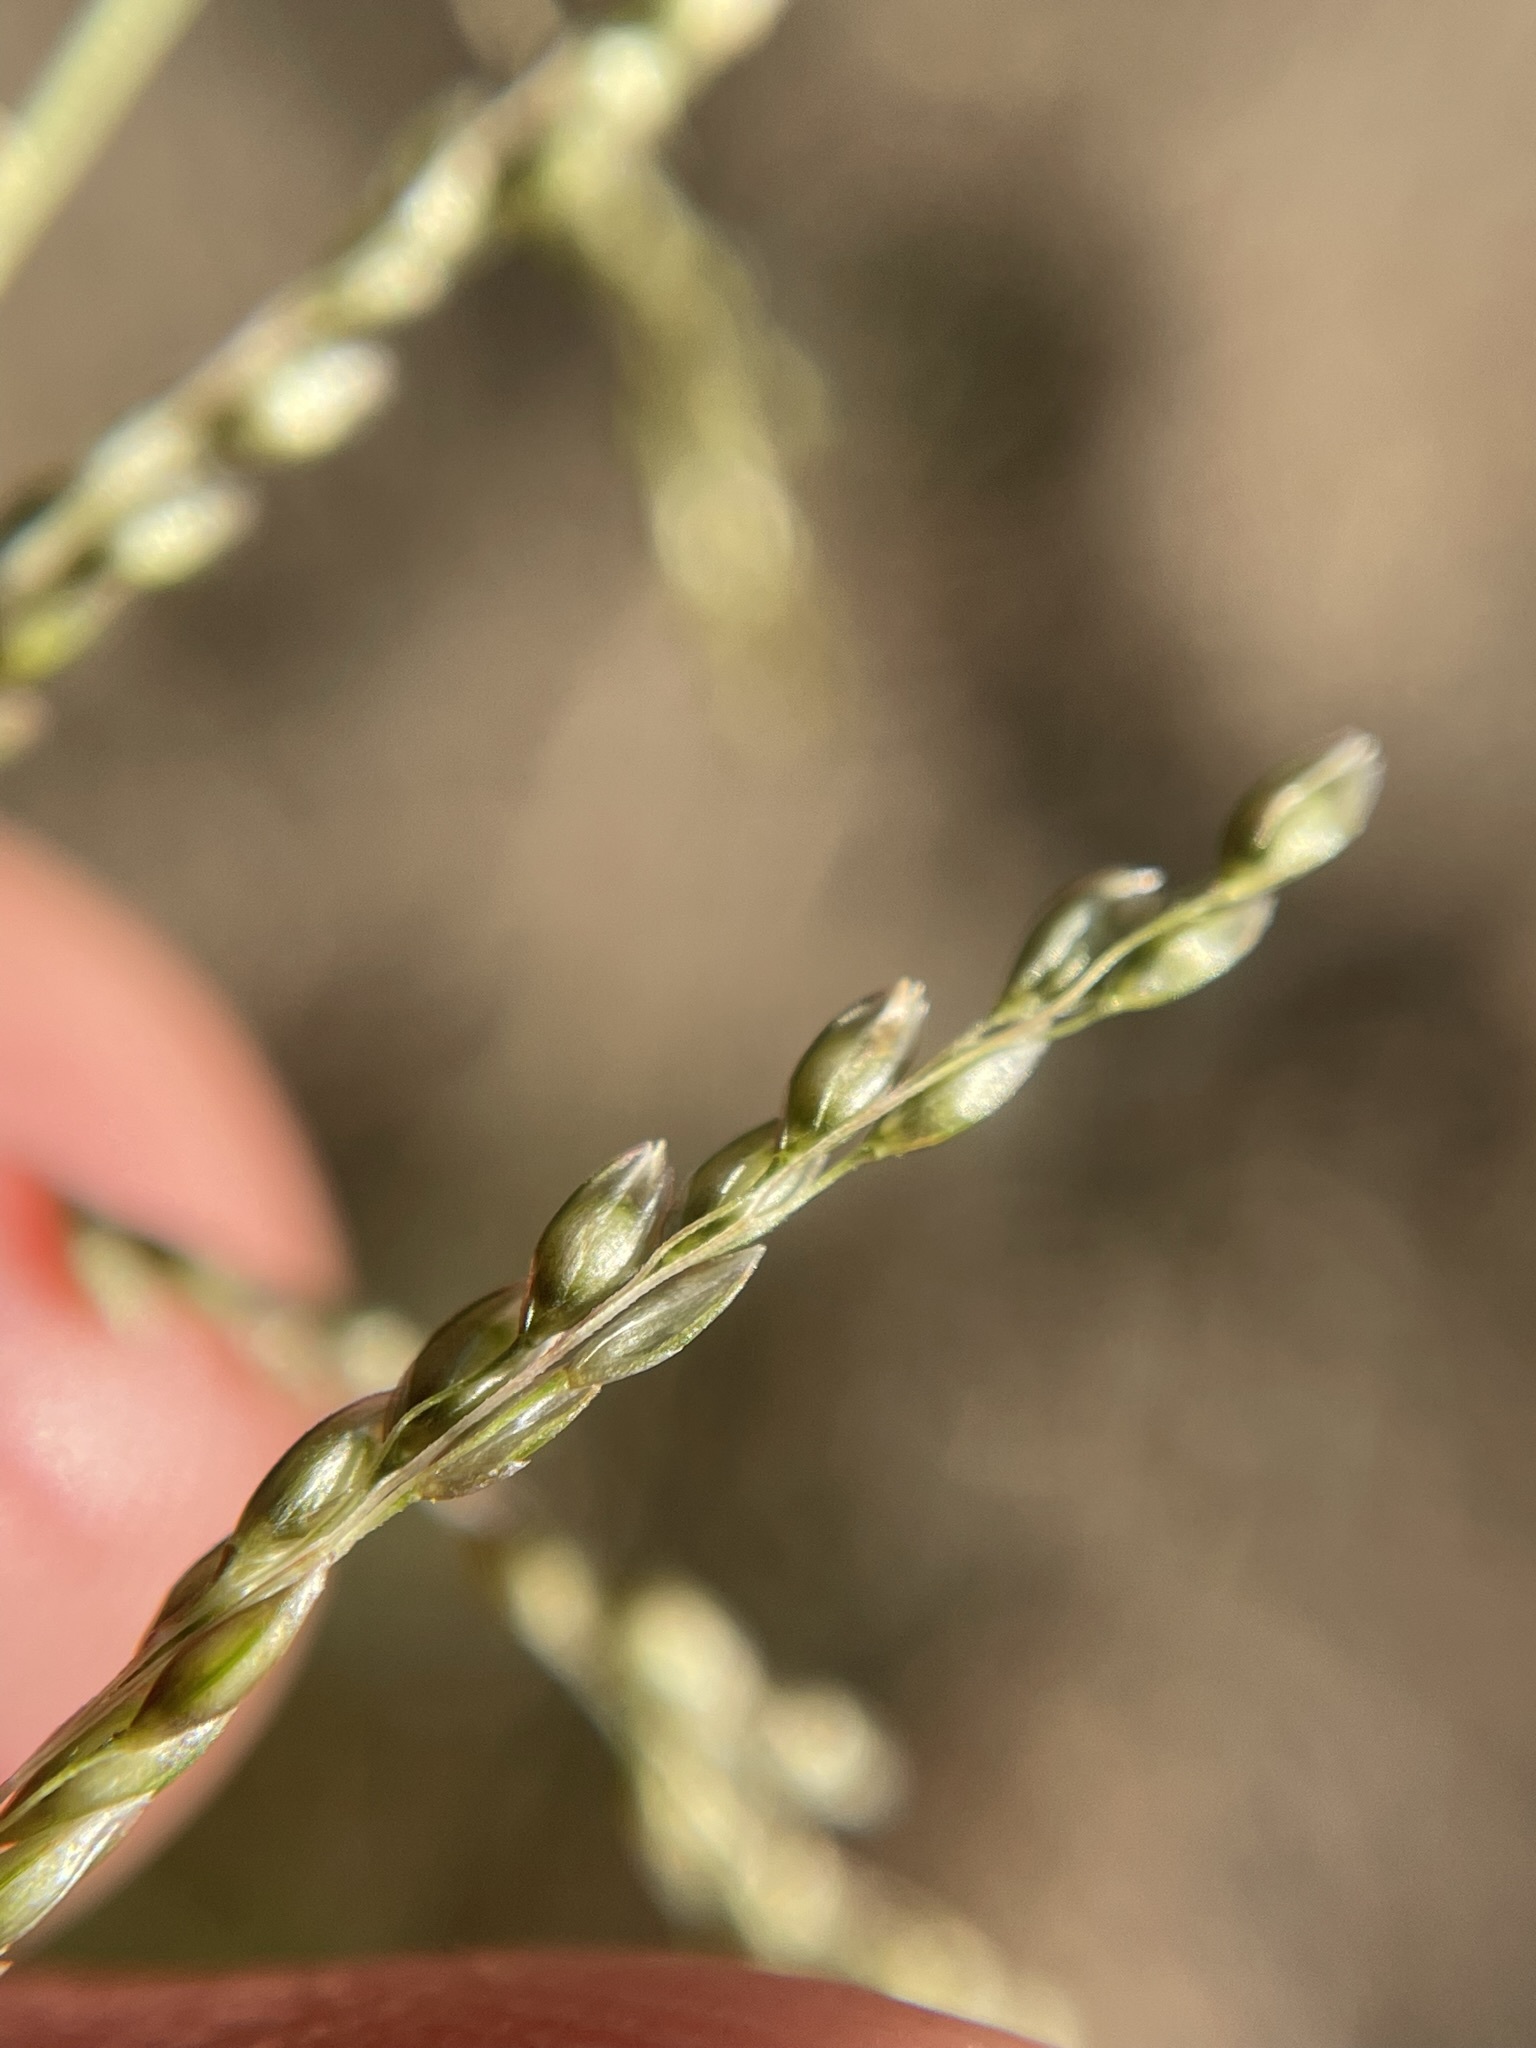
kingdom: Plantae
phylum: Tracheophyta
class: Liliopsida
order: Poales
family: Poaceae
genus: Sporobolus
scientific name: Sporobolus cryptandrus
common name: Sand dropseed
